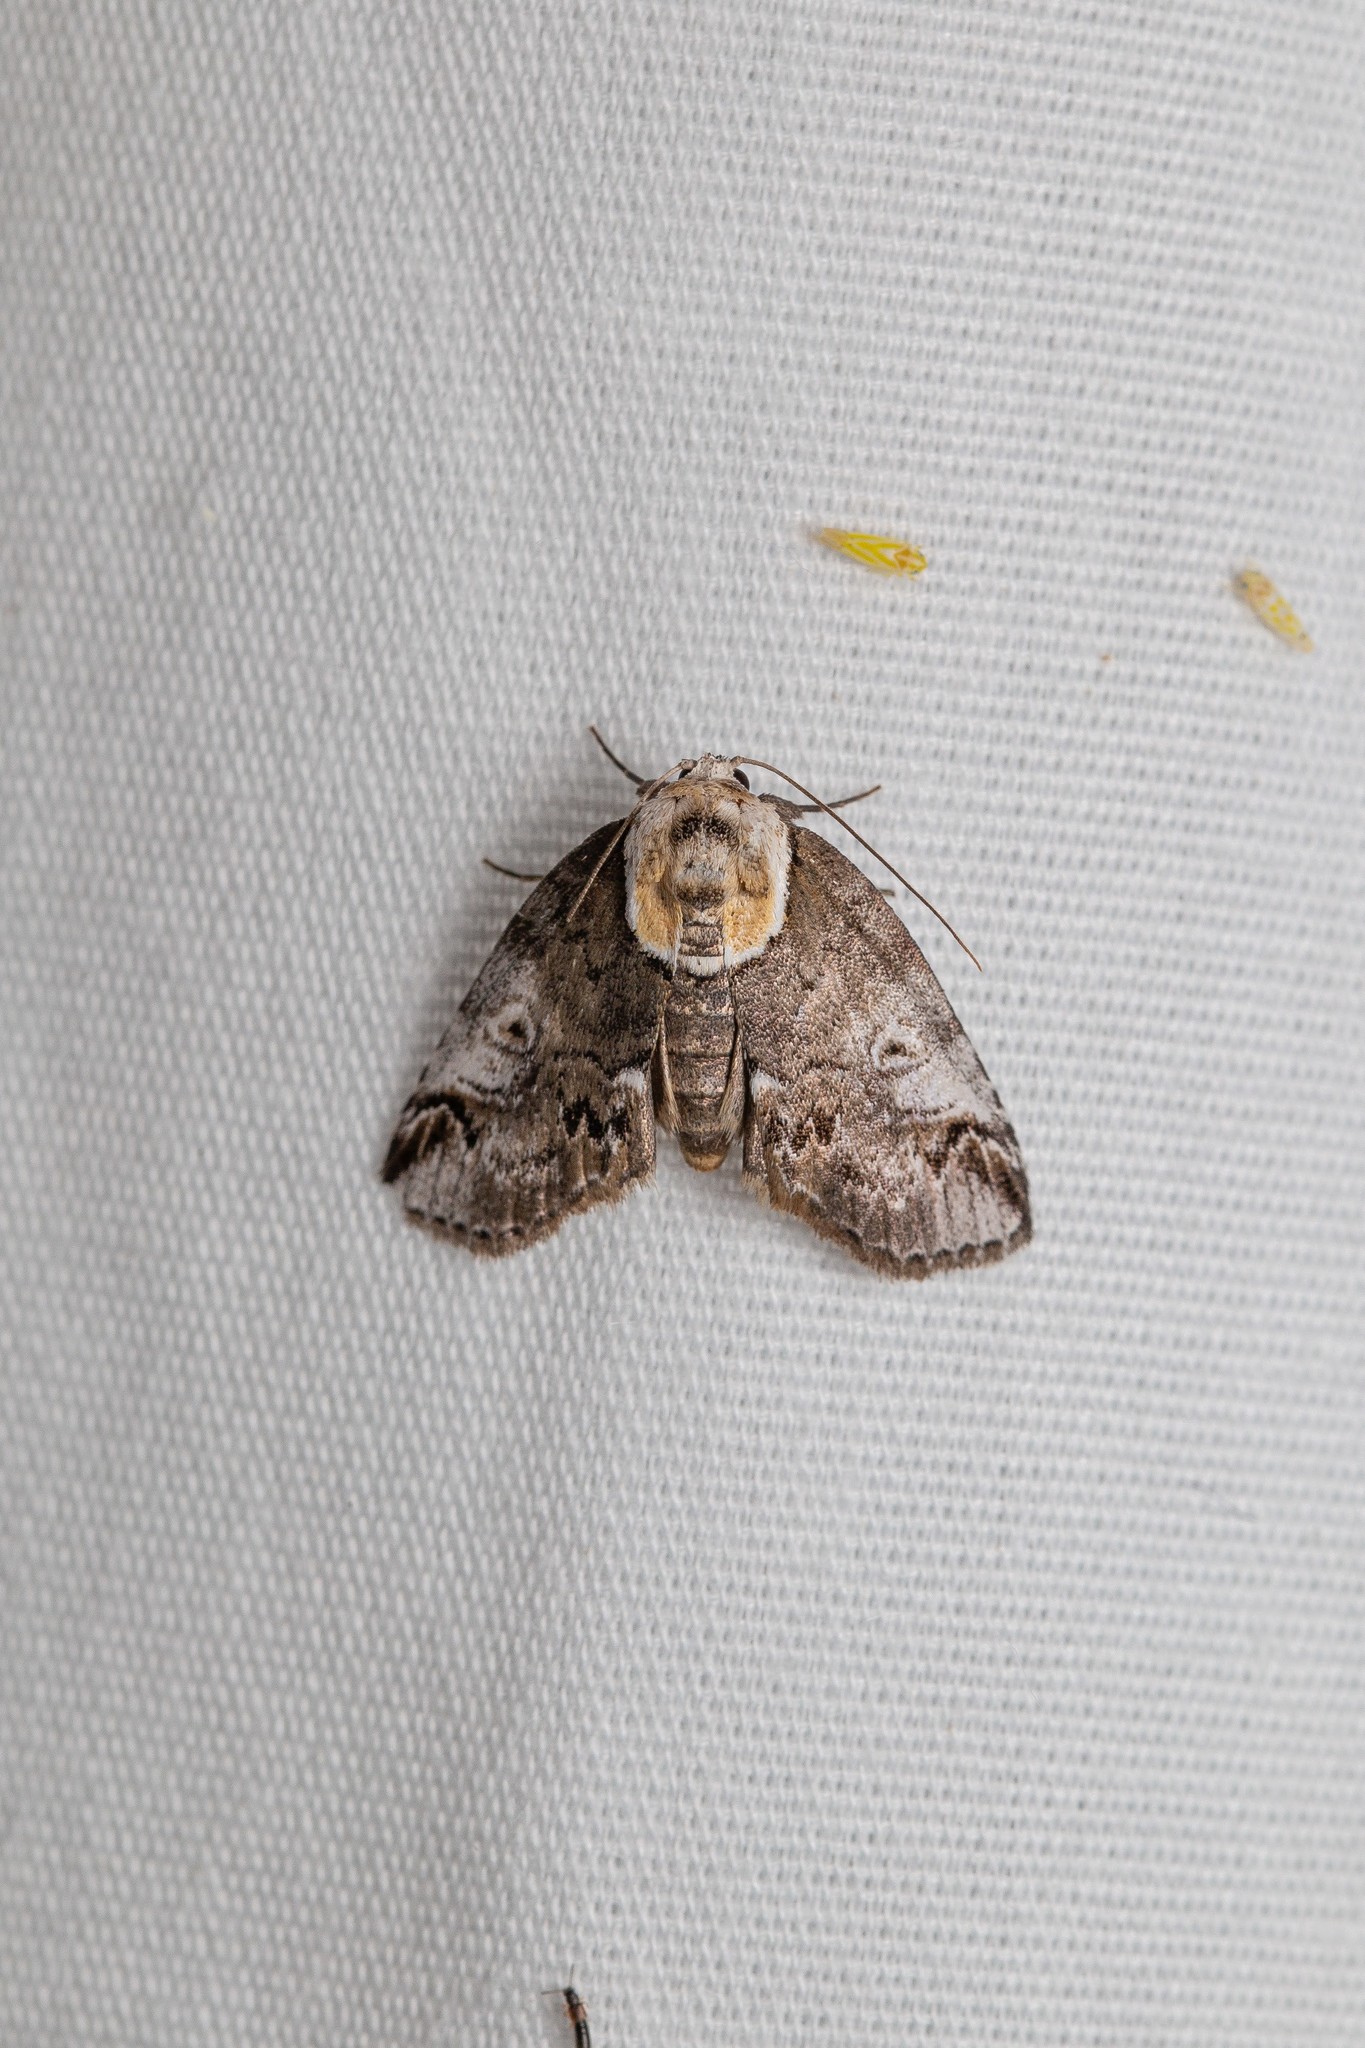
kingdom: Animalia
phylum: Arthropoda
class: Insecta
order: Lepidoptera
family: Nolidae
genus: Baileya
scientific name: Baileya ophthalmica
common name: Eyed baileya moth
